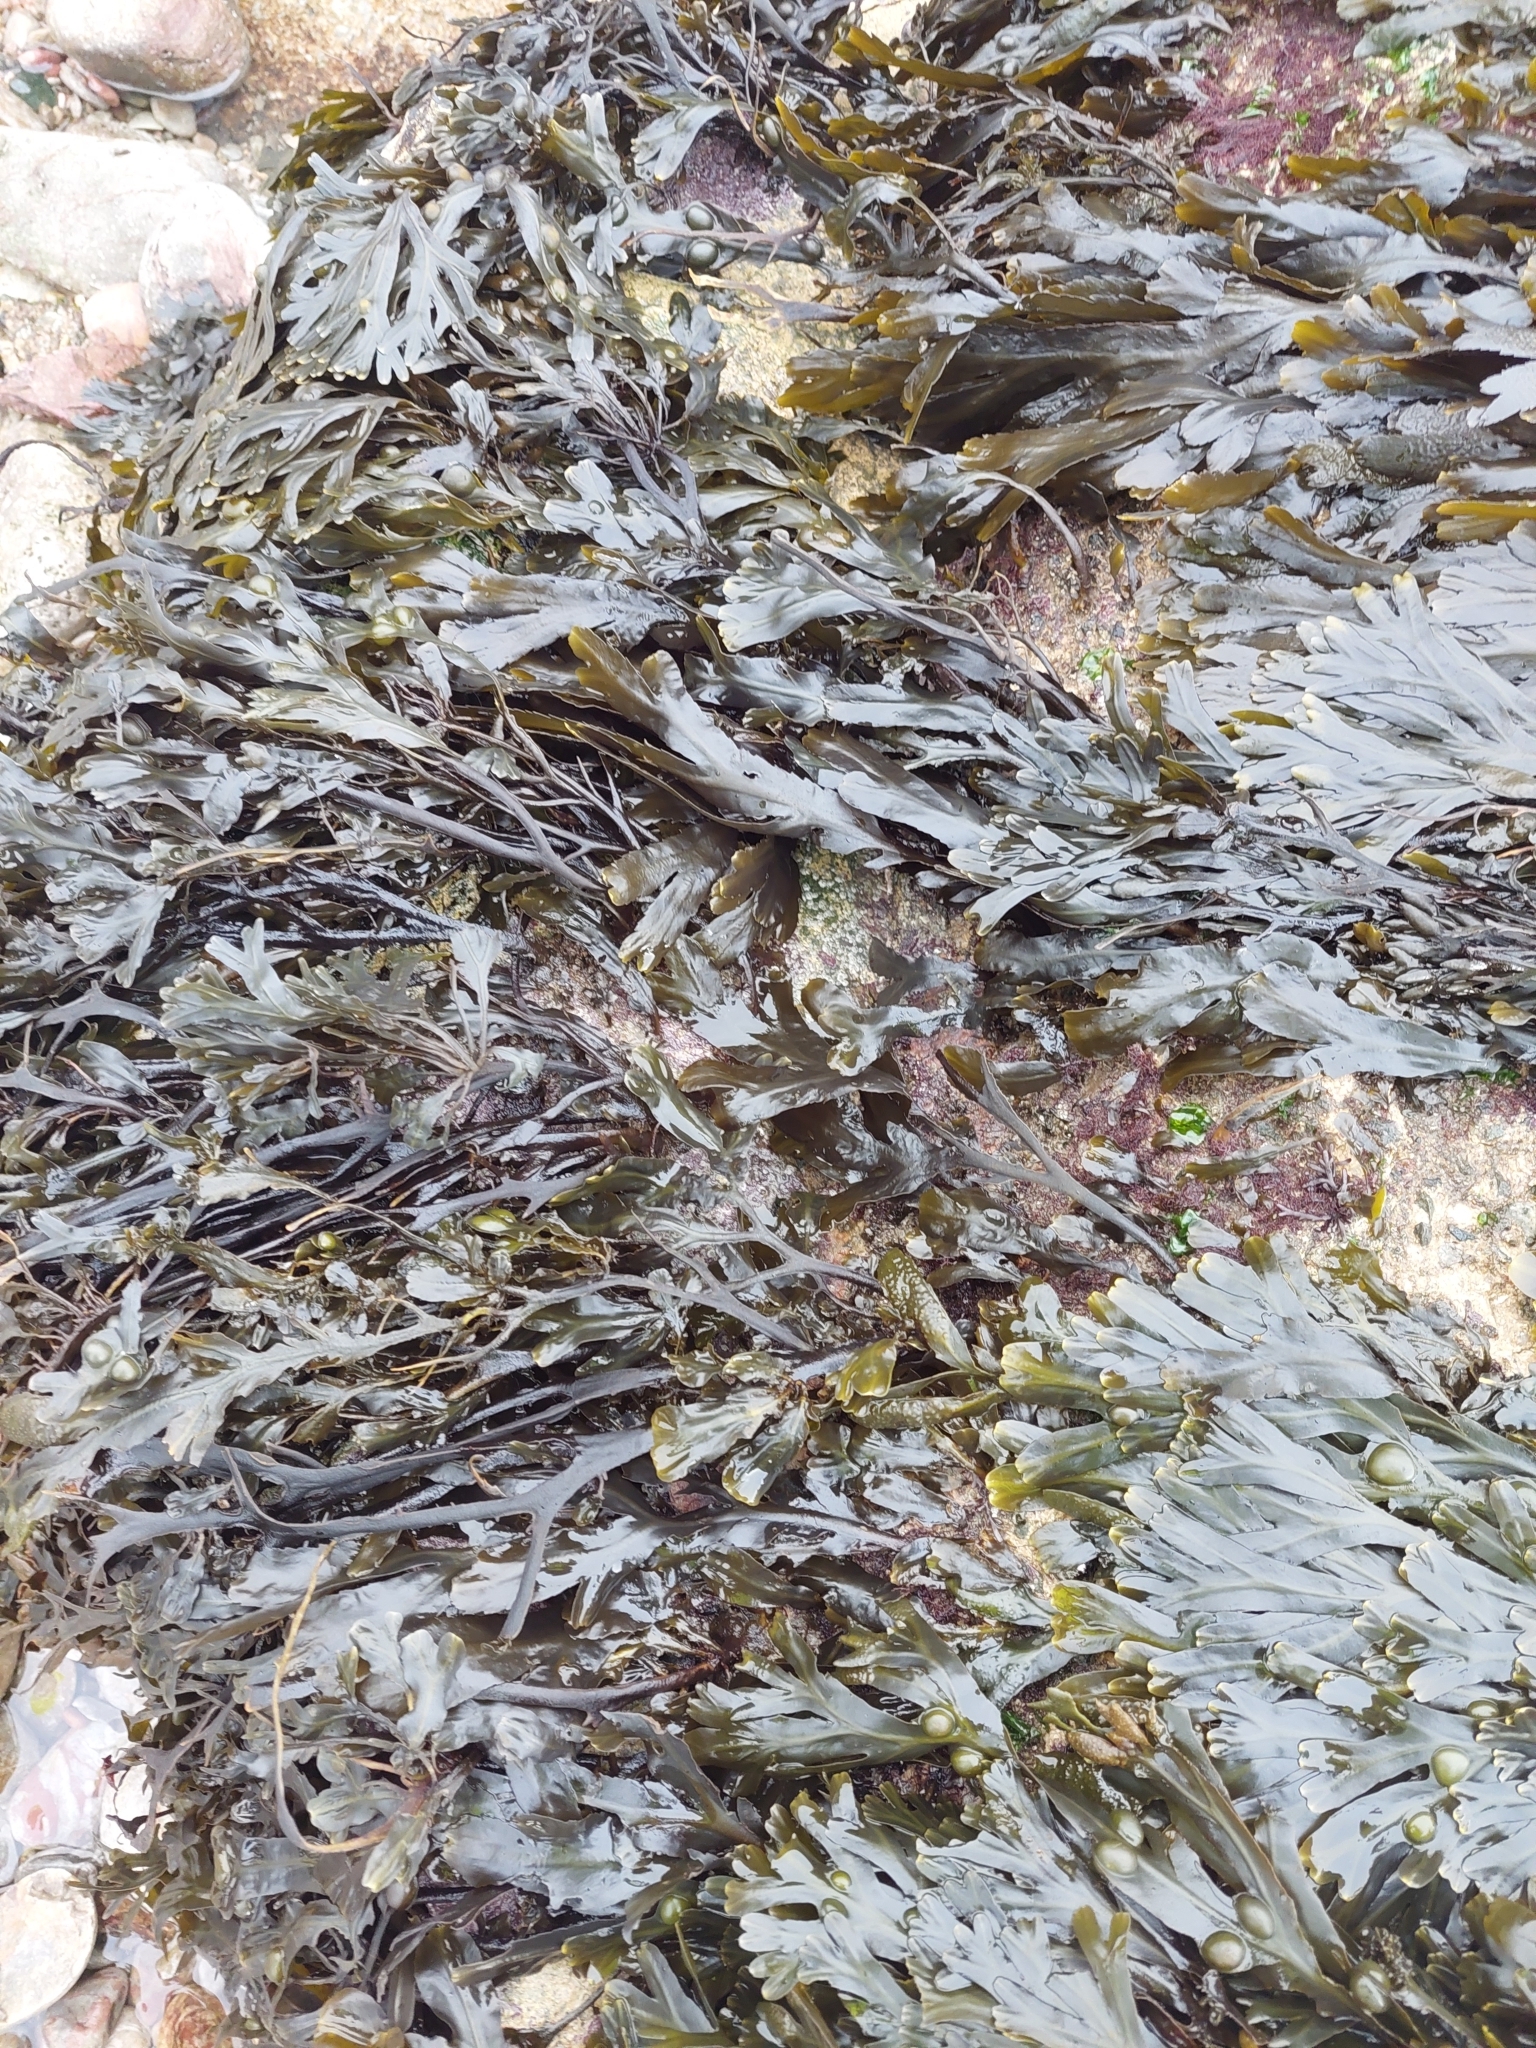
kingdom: Chromista
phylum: Ochrophyta
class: Phaeophyceae
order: Fucales
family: Fucaceae
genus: Fucus
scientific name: Fucus vesiculosus
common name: Bladder wrack
